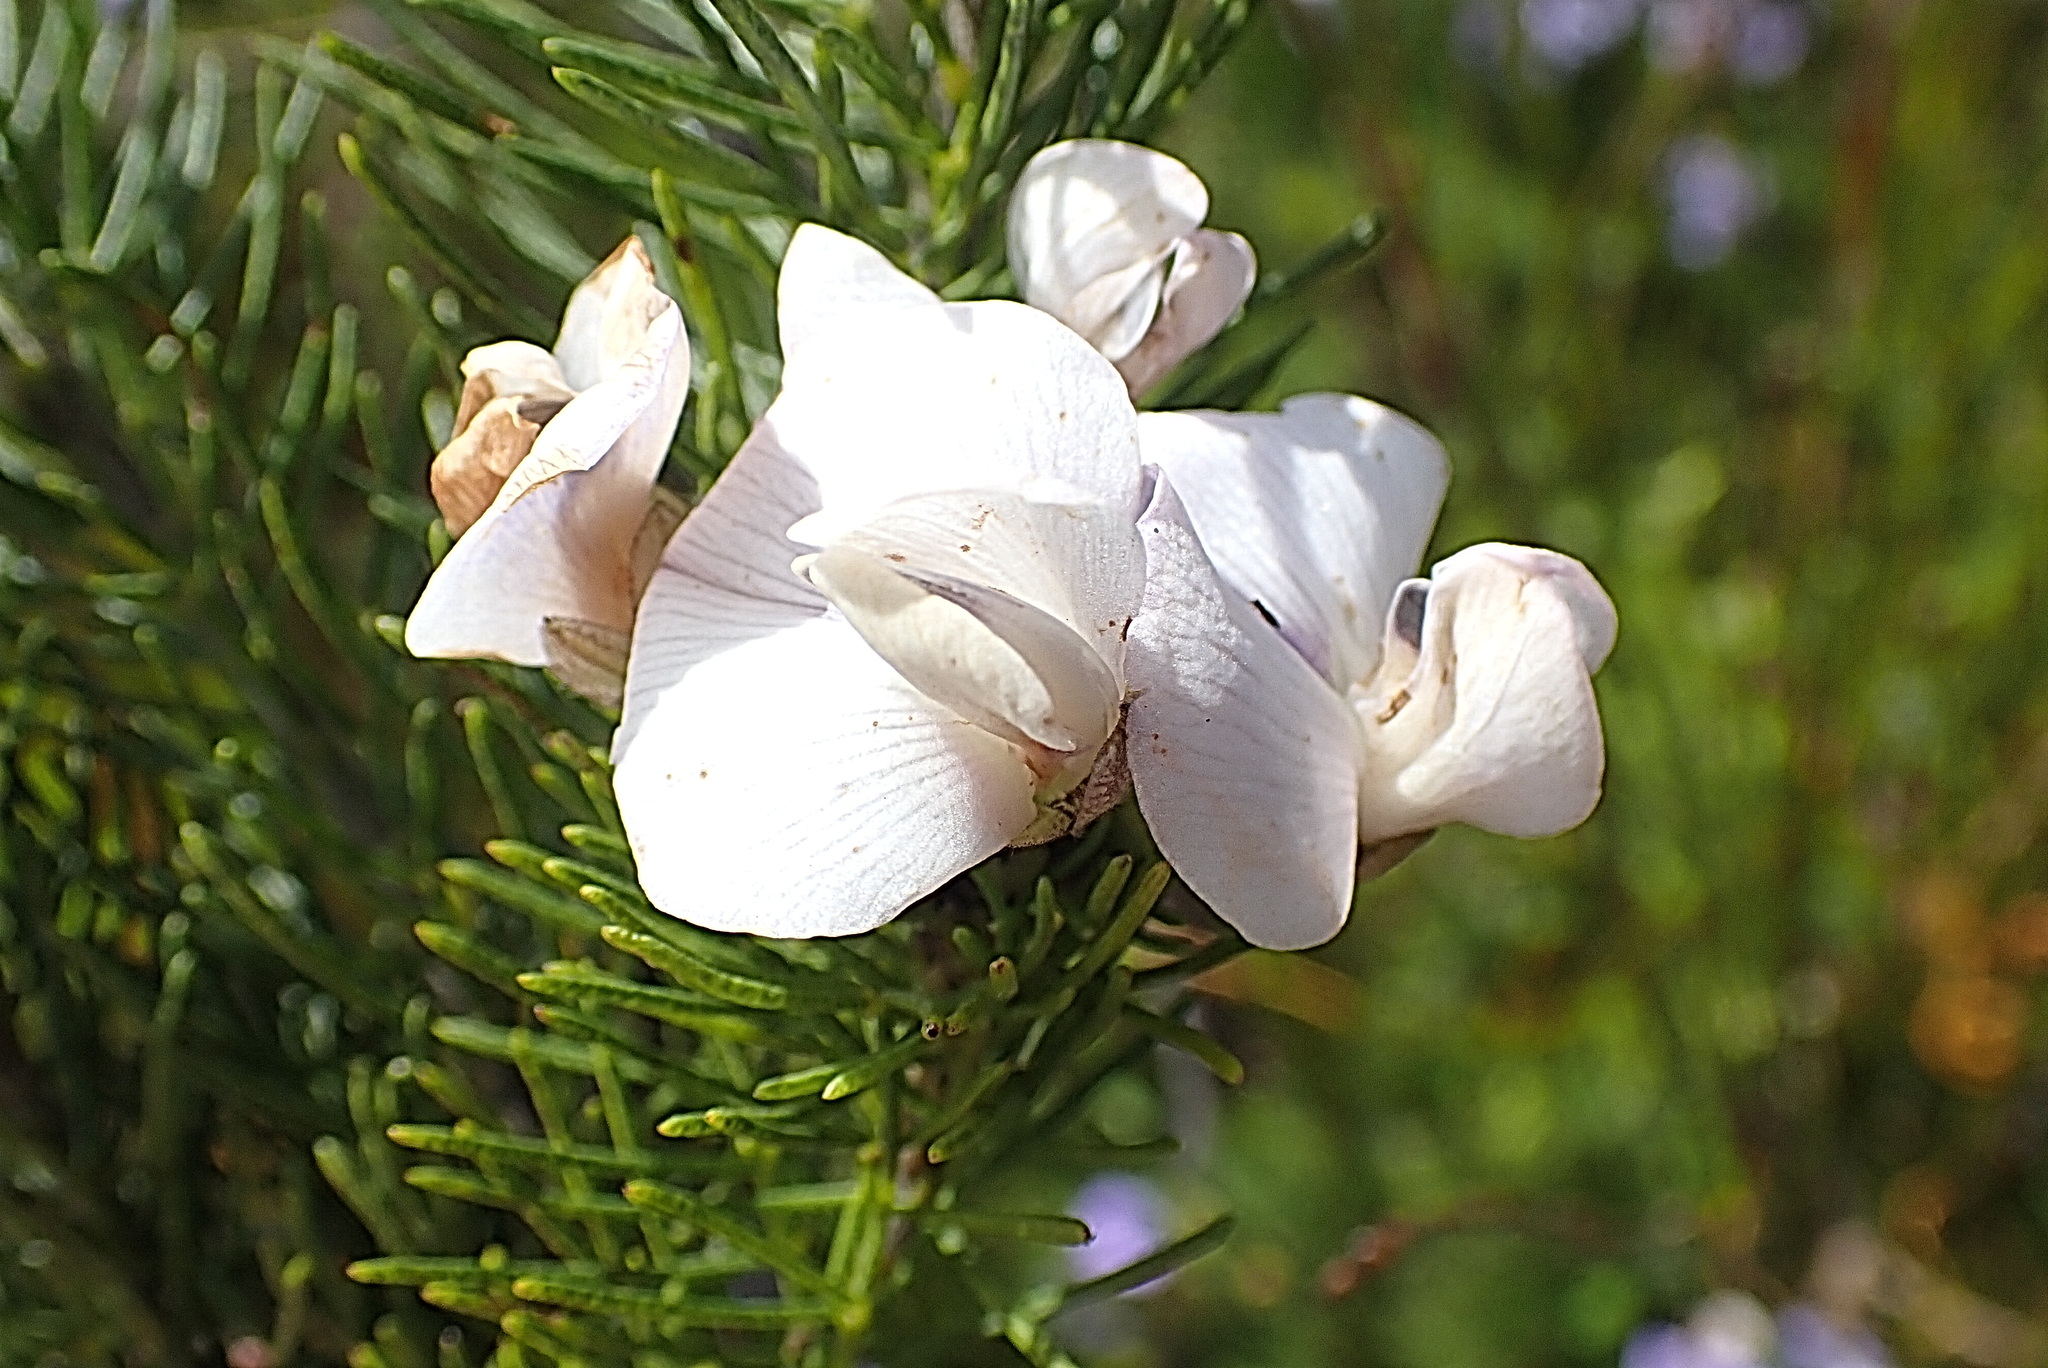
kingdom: Plantae
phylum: Tracheophyta
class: Magnoliopsida
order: Fabales
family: Fabaceae
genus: Psoralea
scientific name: Psoralea speciosa
